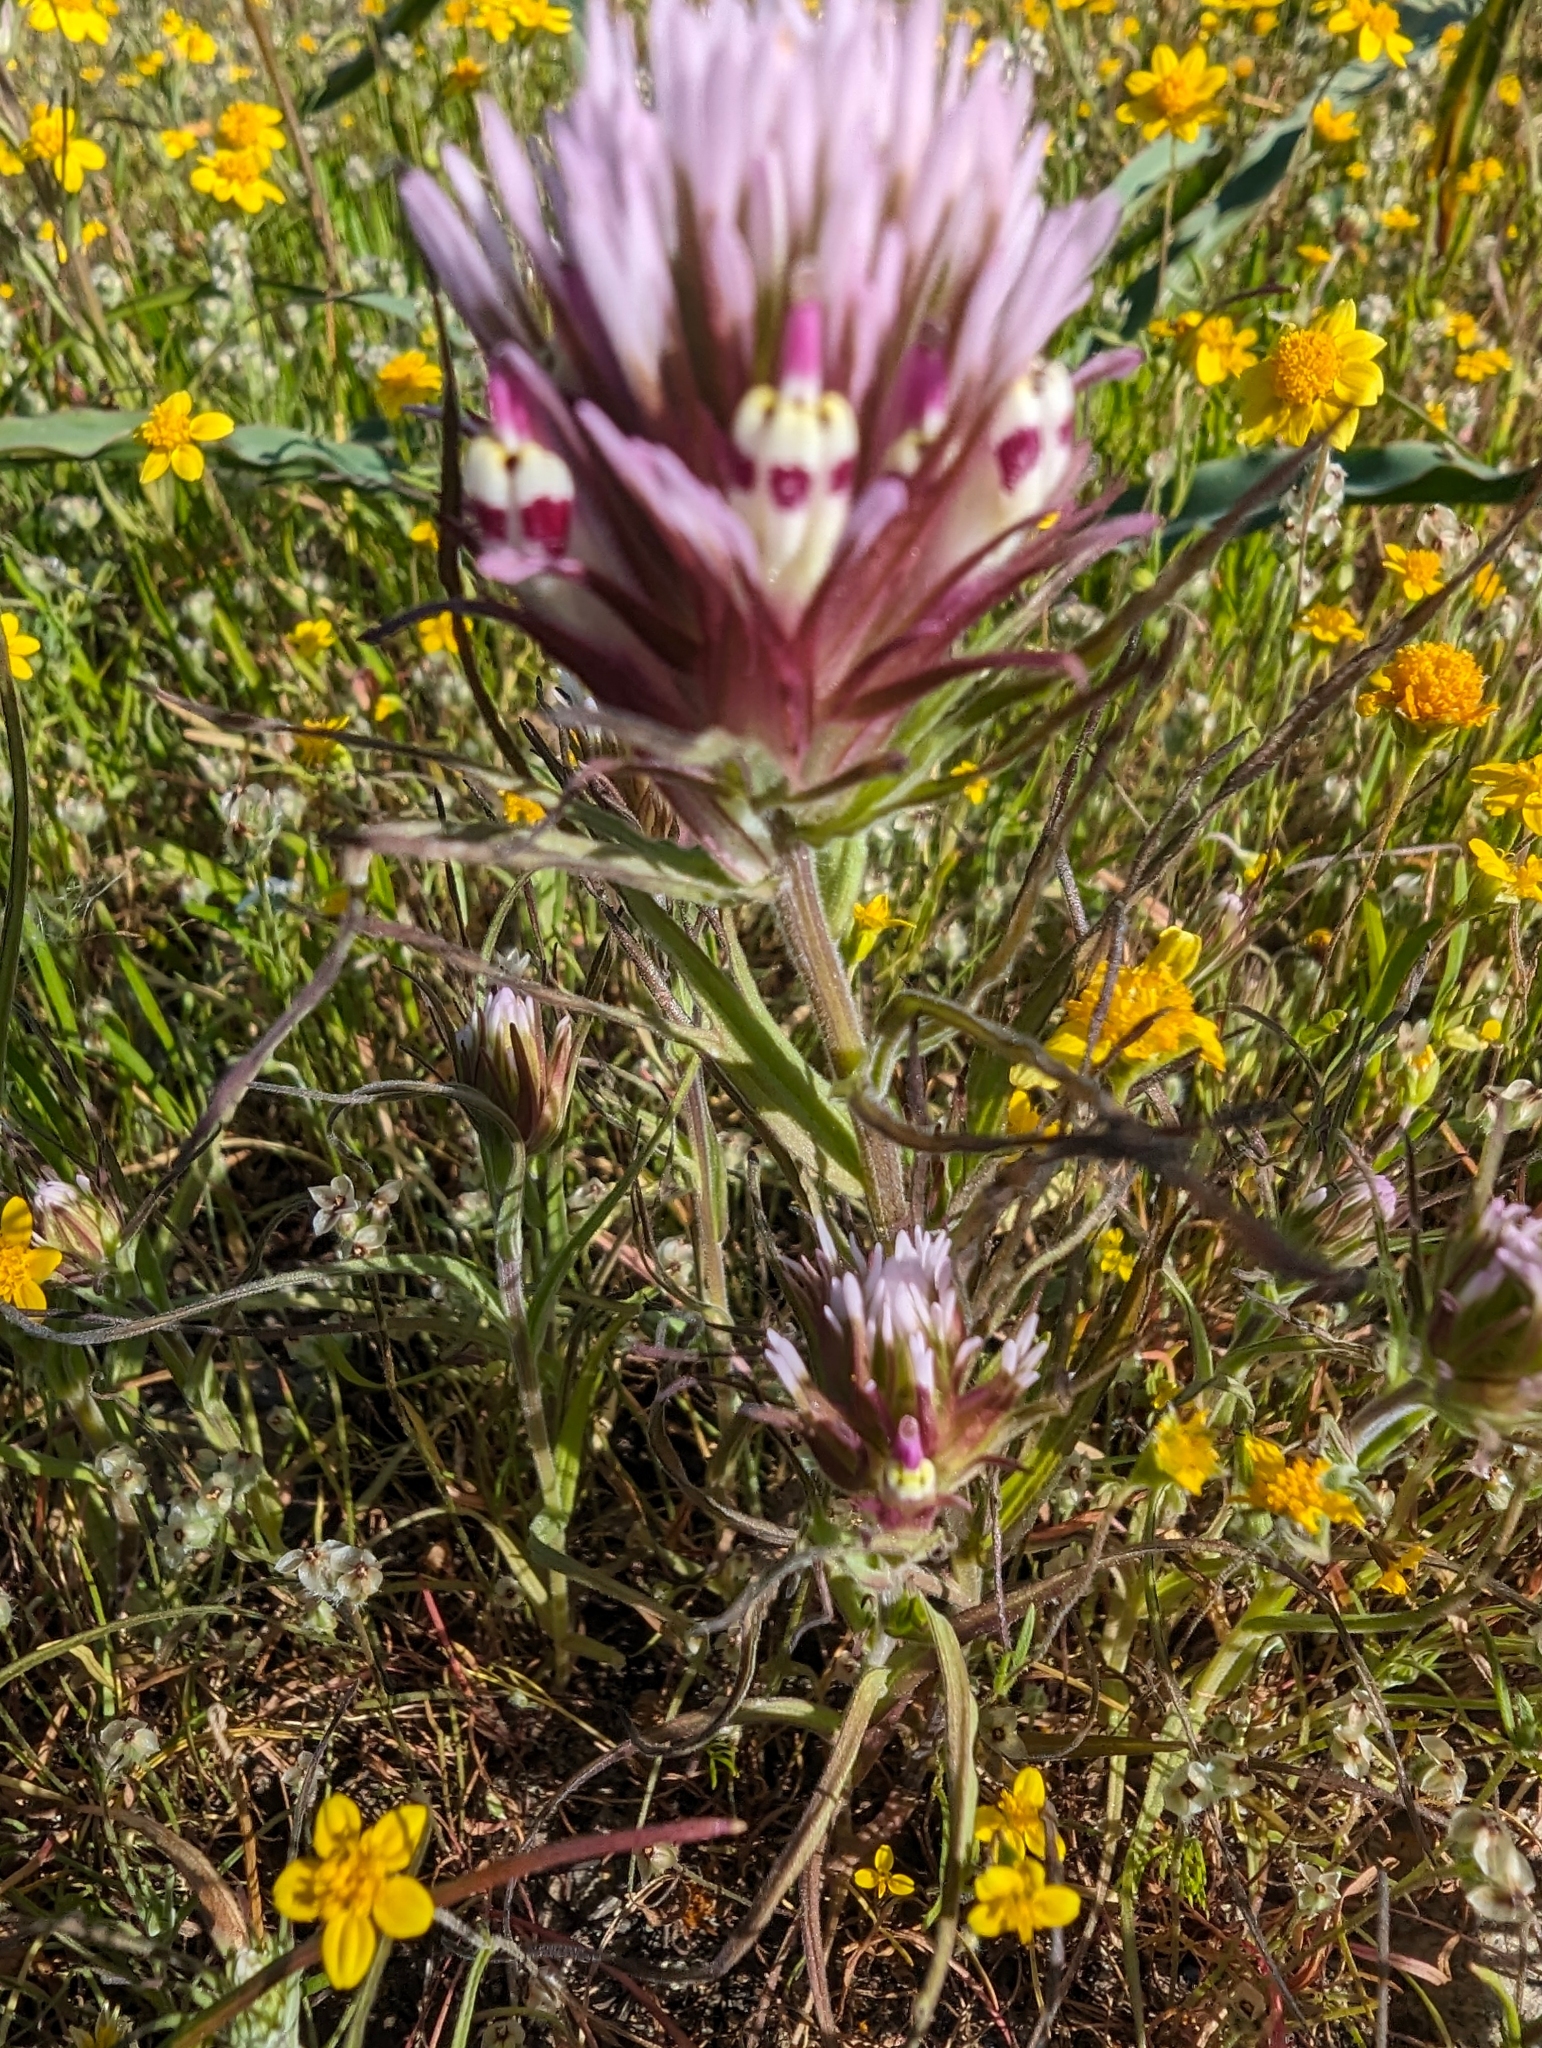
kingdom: Plantae
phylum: Tracheophyta
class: Magnoliopsida
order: Lamiales
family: Orobanchaceae
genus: Castilleja
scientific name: Castilleja densiflora
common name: Dense-flower indian paintbrush
